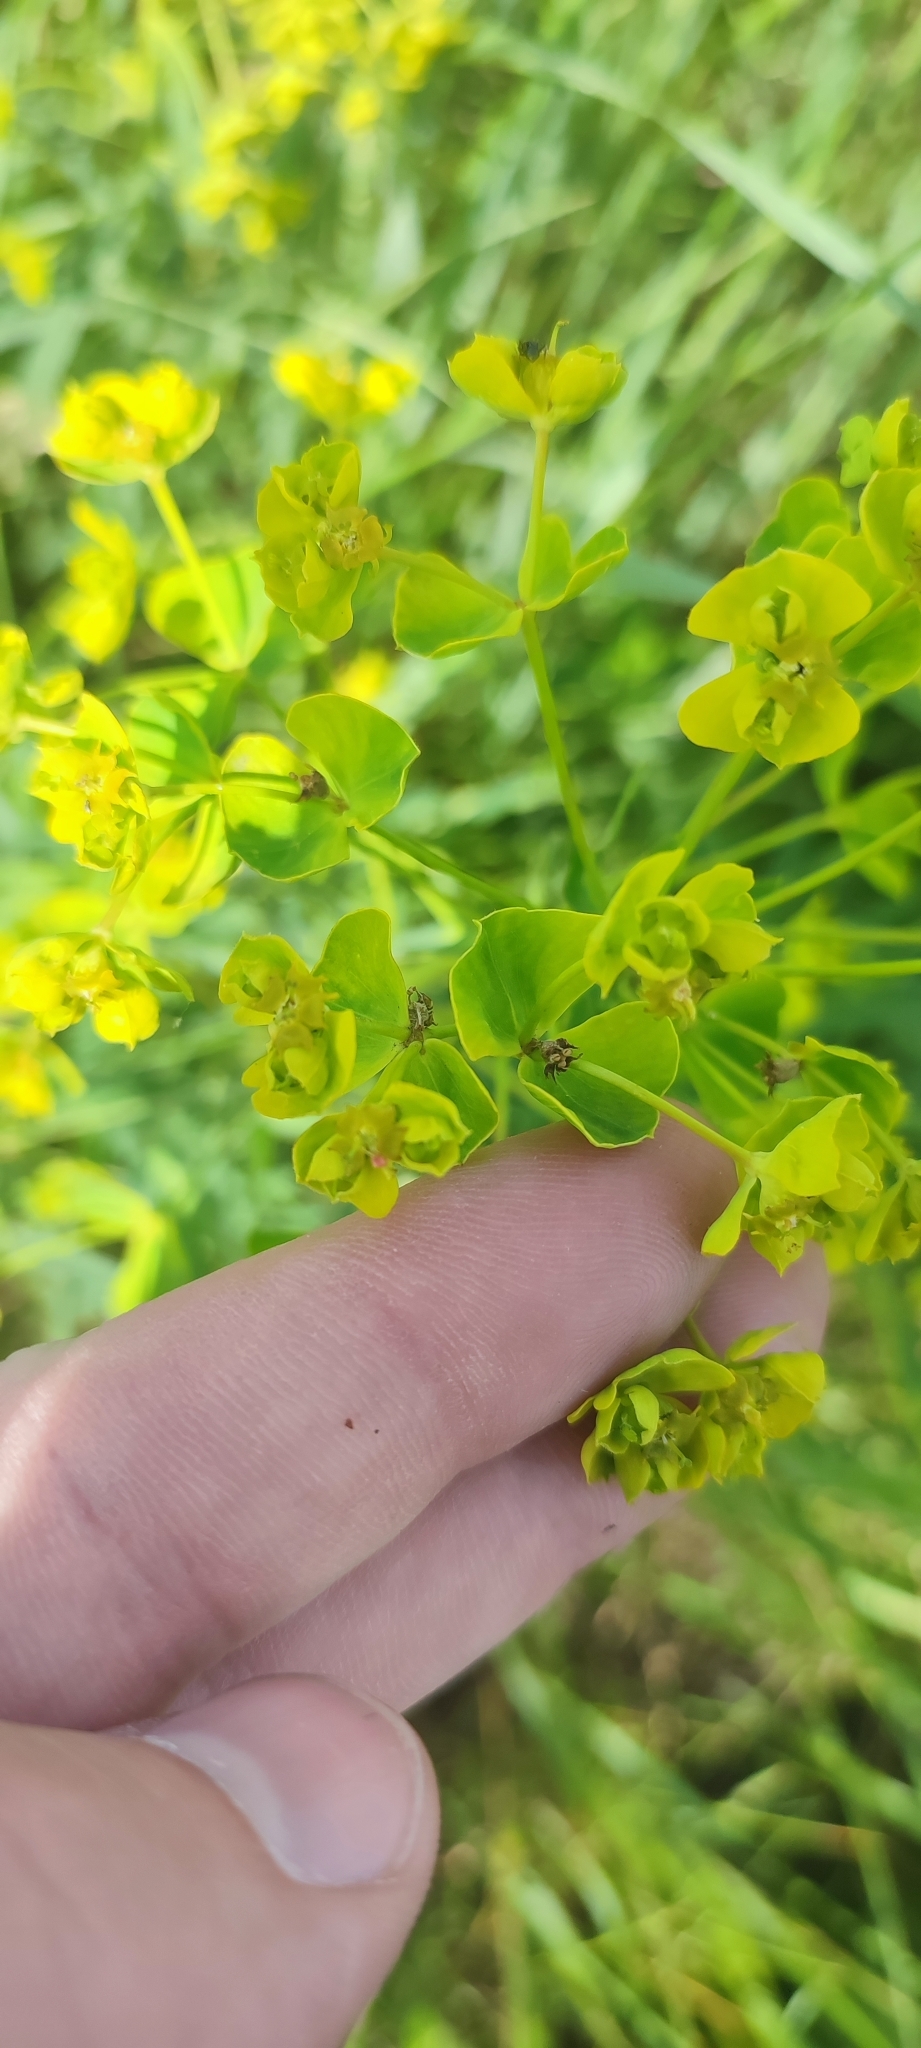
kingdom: Plantae
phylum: Tracheophyta
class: Magnoliopsida
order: Malpighiales
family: Euphorbiaceae
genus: Euphorbia
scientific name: Euphorbia virgata
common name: Leafy spurge
